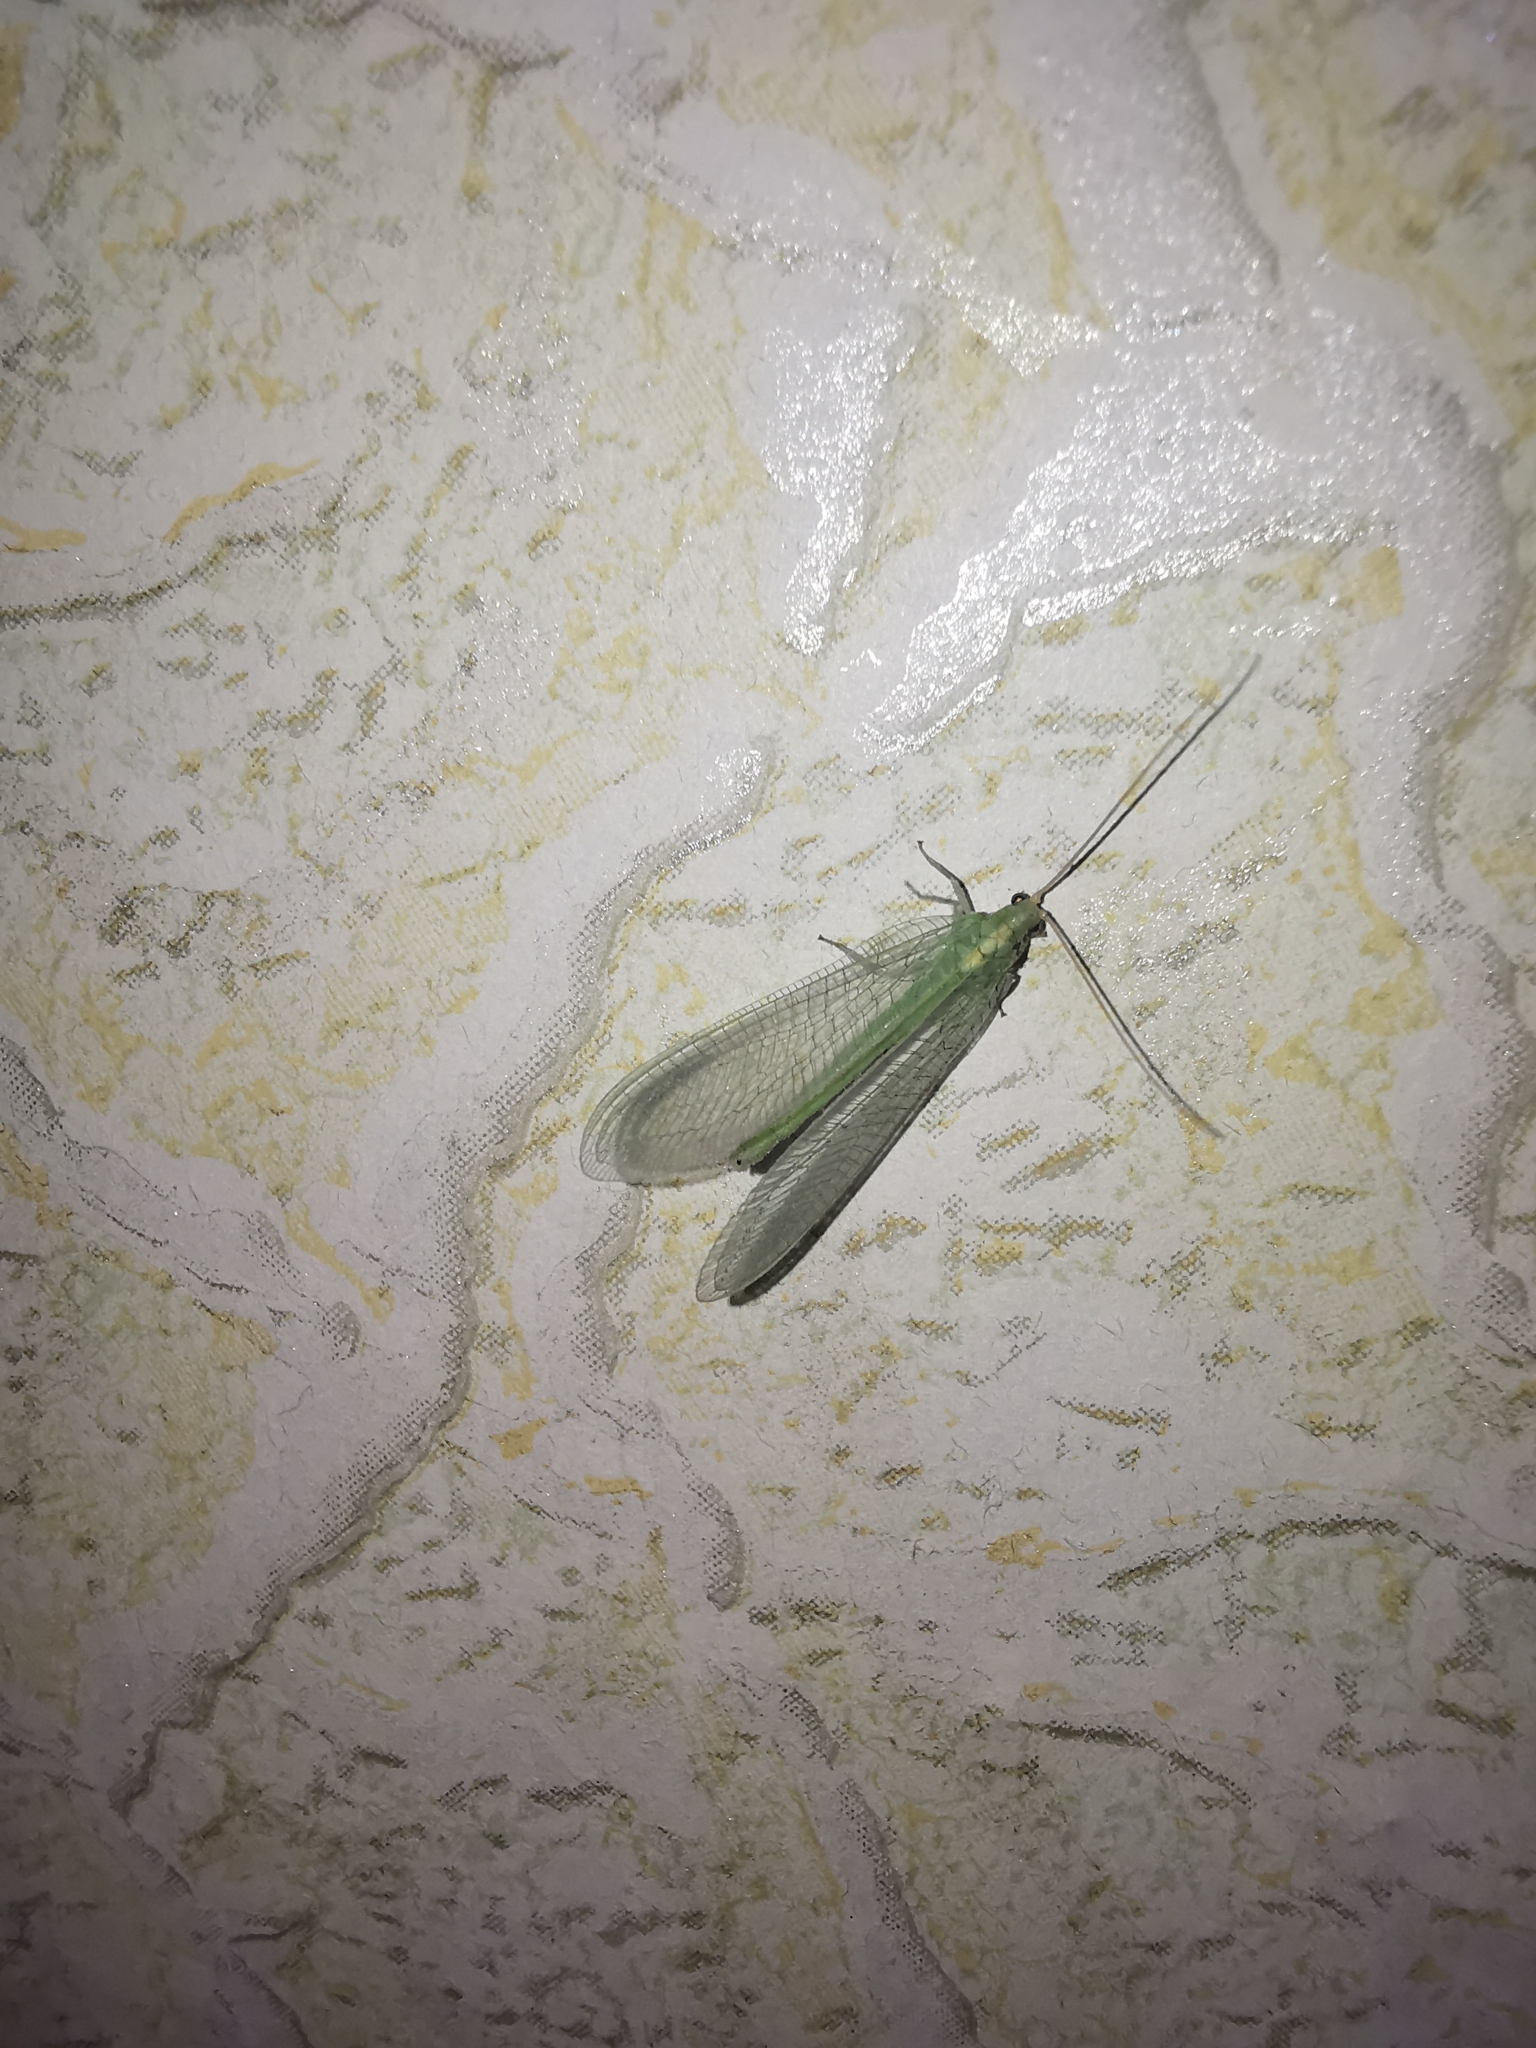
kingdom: Animalia
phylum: Arthropoda
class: Insecta
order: Neuroptera
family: Chrysopidae
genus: Nineta
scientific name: Nineta flava
